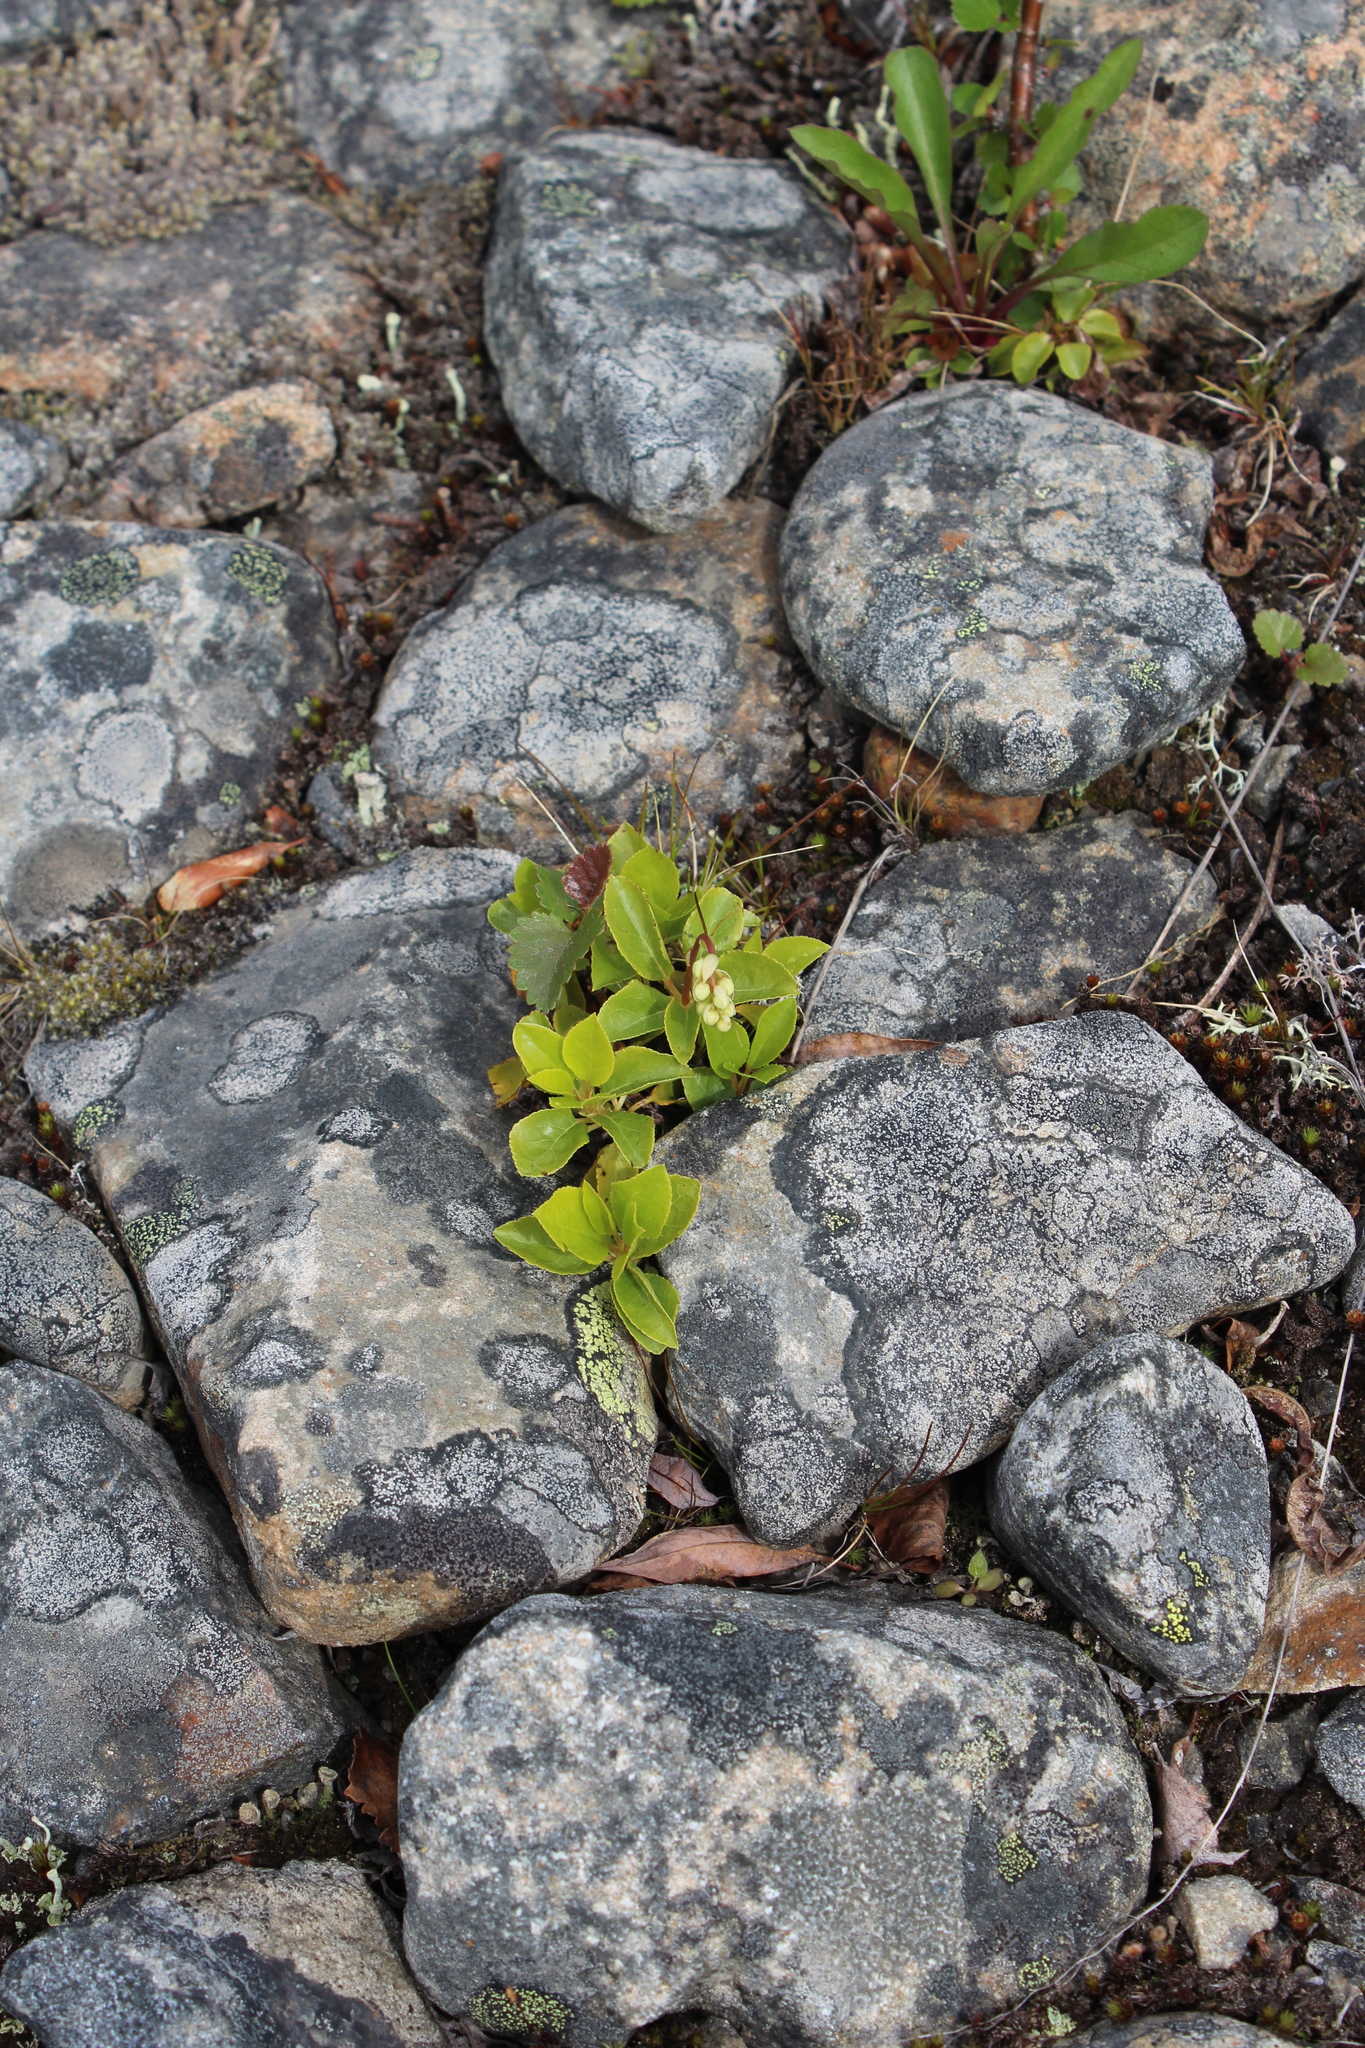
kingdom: Plantae
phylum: Tracheophyta
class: Magnoliopsida
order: Ericales
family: Ericaceae
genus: Orthilia
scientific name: Orthilia secunda
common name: One-sided orthilia
